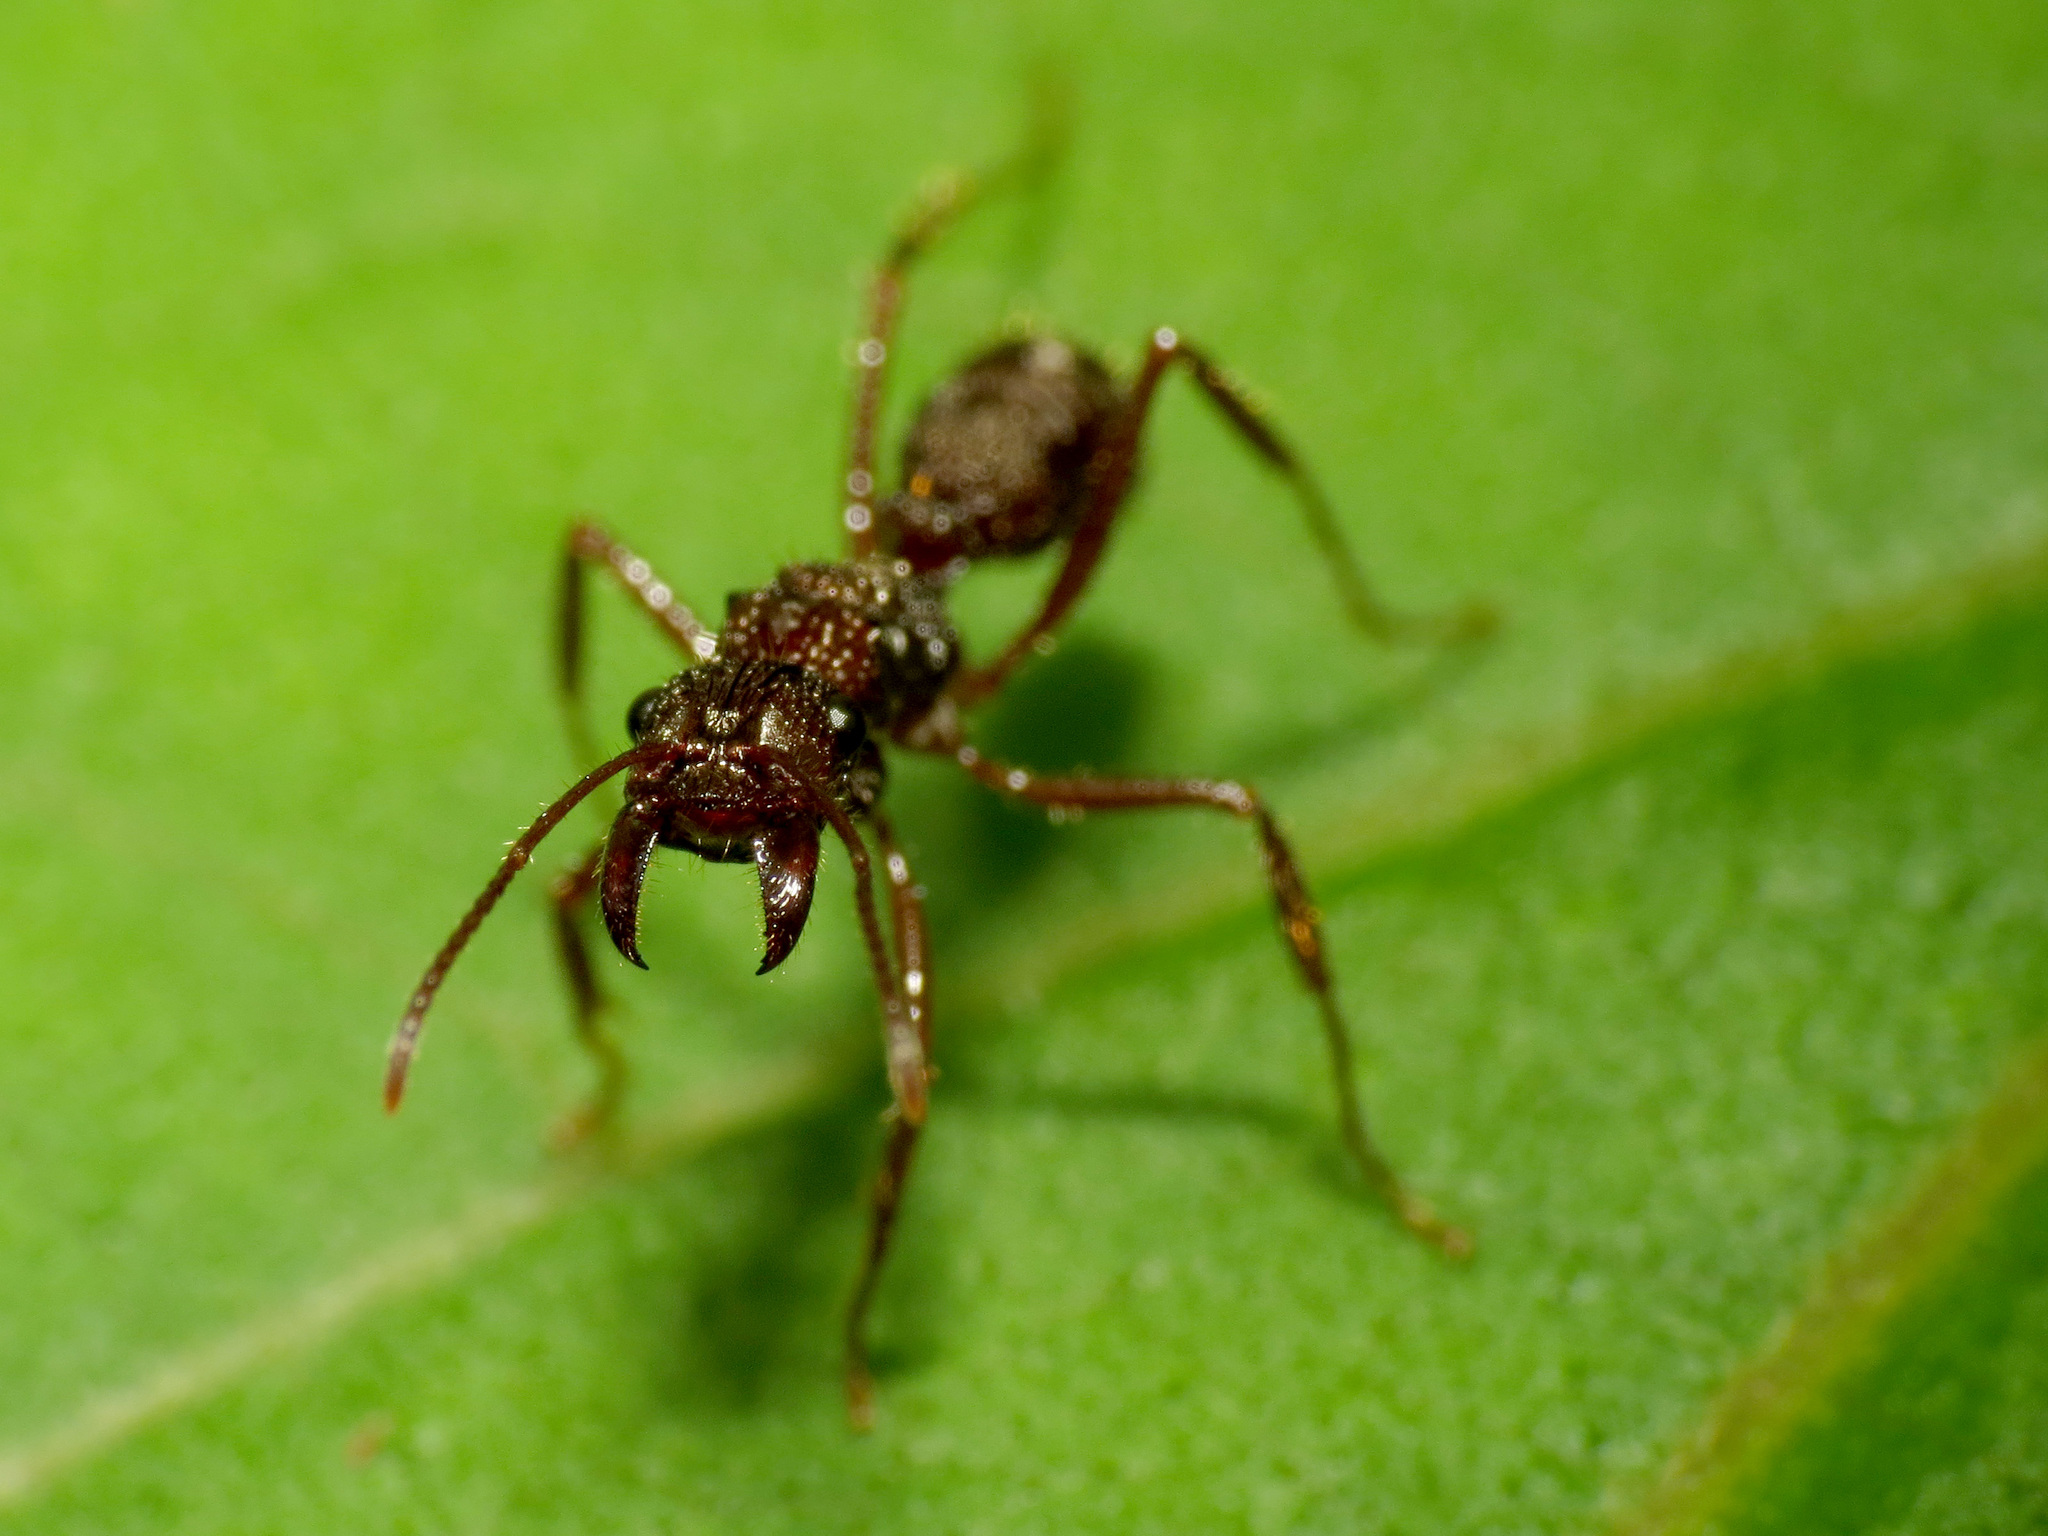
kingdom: Animalia
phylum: Arthropoda
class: Insecta
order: Hymenoptera
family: Formicidae
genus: Ectatomma
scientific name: Ectatomma ruidum
